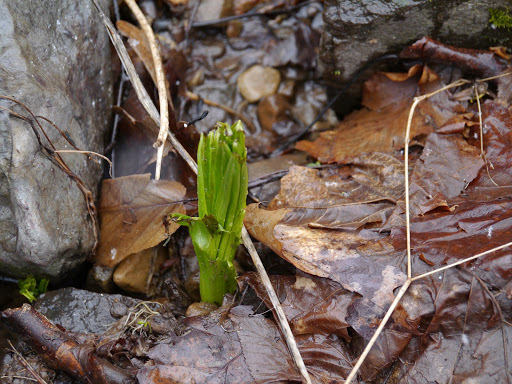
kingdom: Plantae
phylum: Tracheophyta
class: Liliopsida
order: Liliales
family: Melanthiaceae
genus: Veratrum
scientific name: Veratrum viride
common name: American false hellebore
